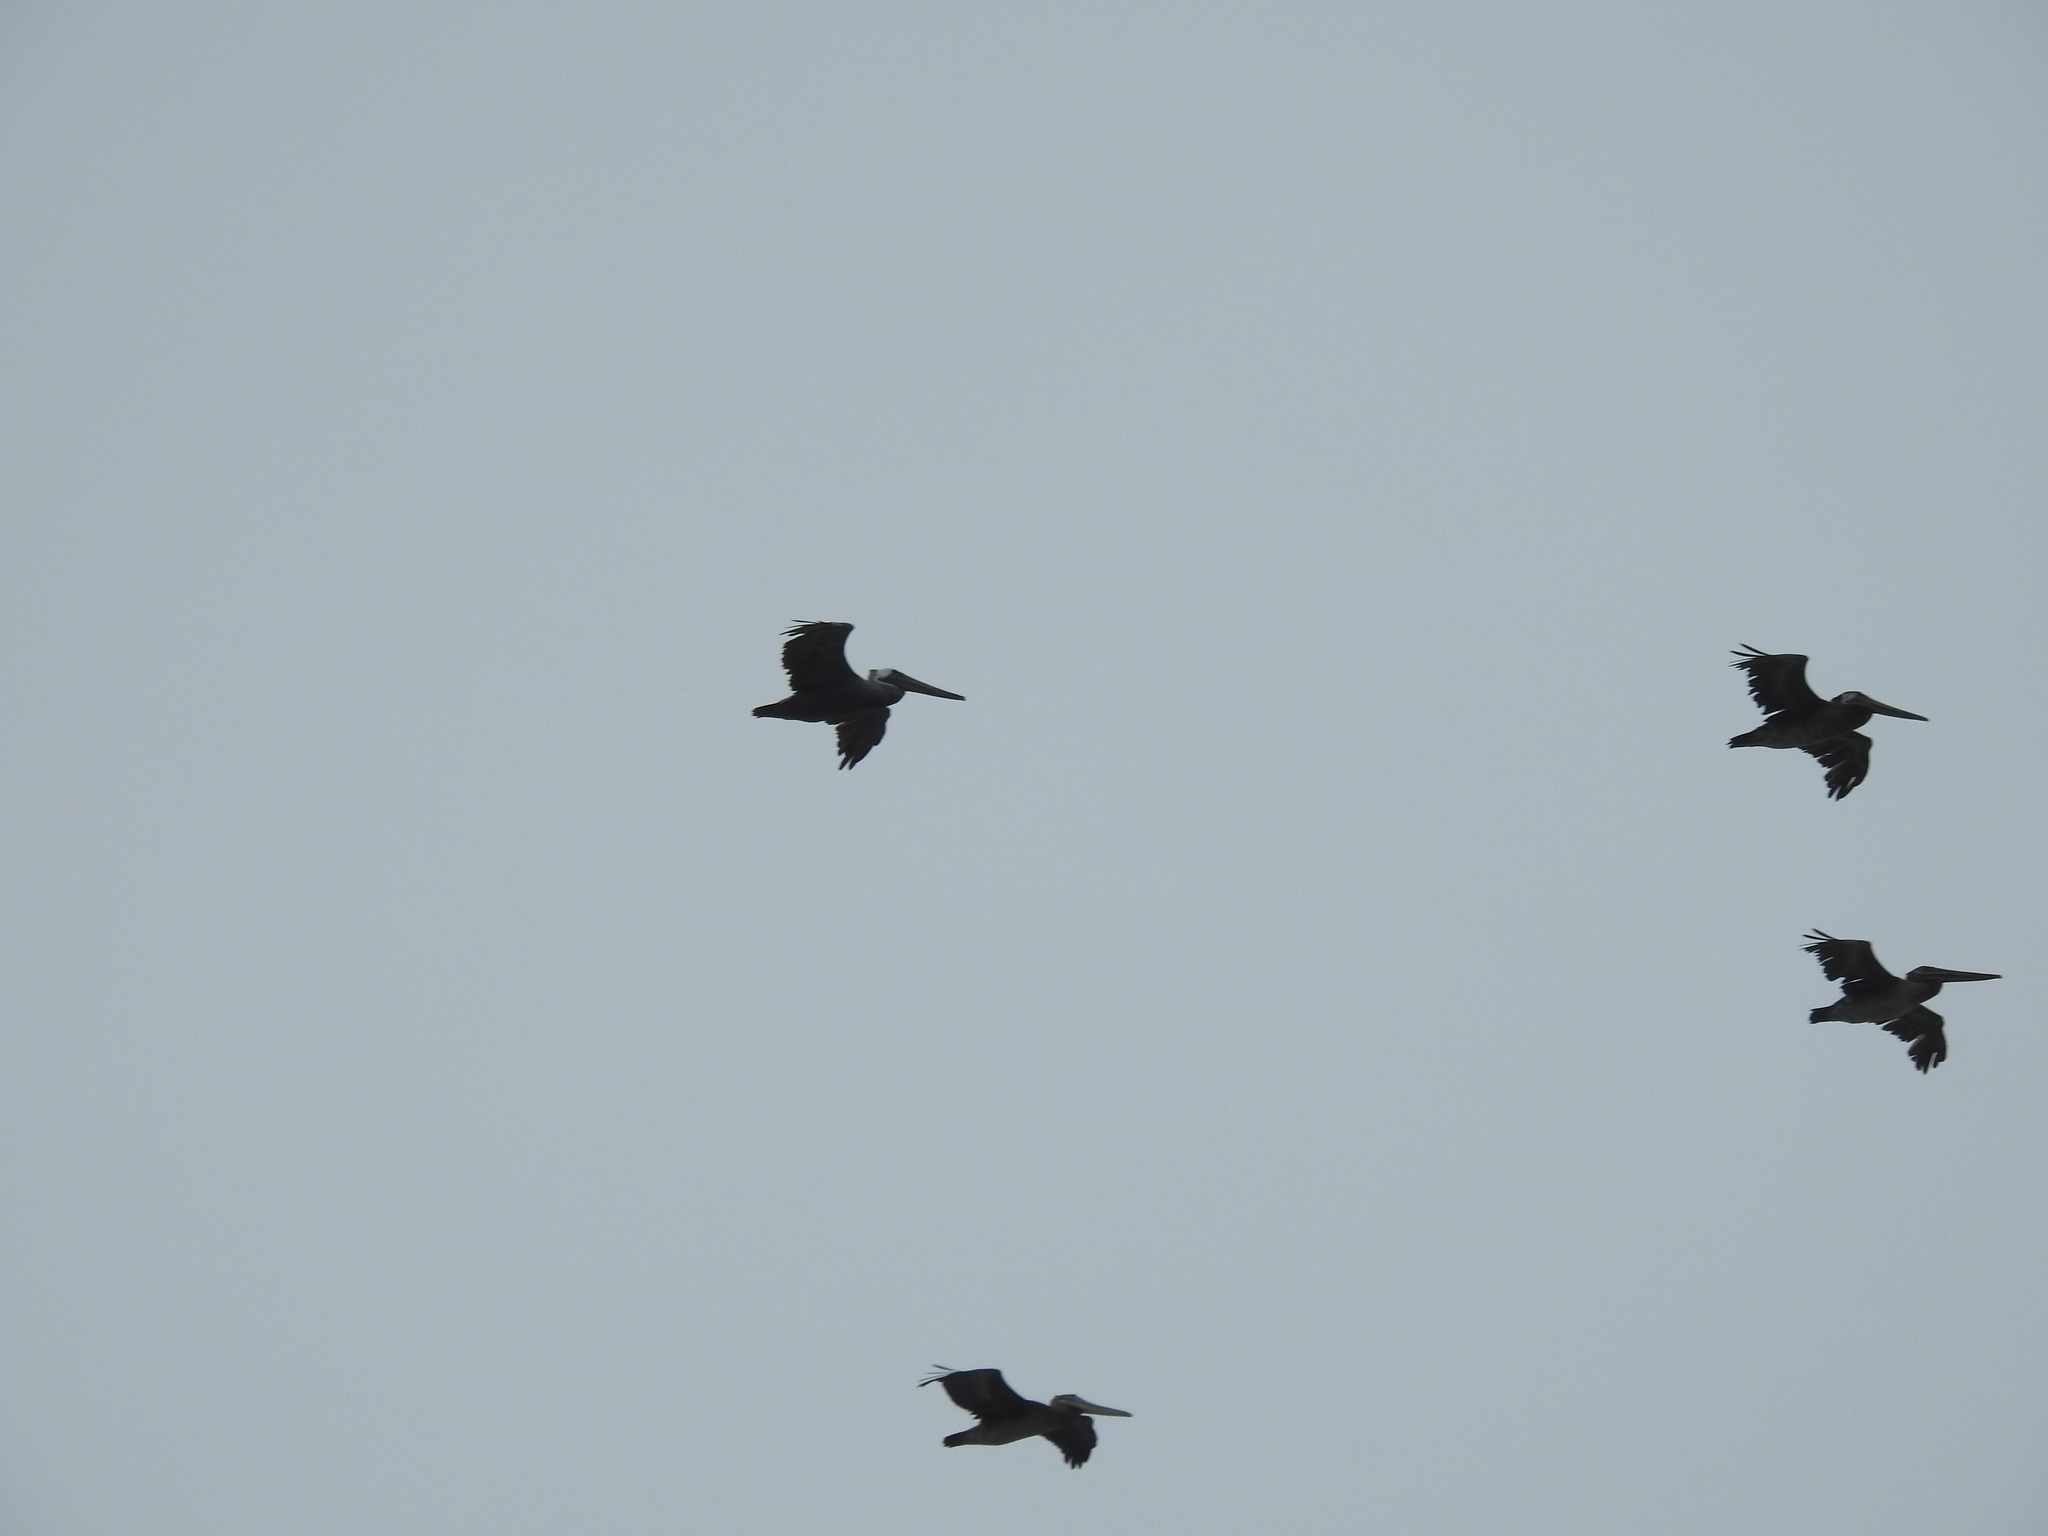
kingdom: Animalia
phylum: Chordata
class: Aves
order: Pelecaniformes
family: Pelecanidae
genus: Pelecanus
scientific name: Pelecanus occidentalis
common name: Brown pelican
